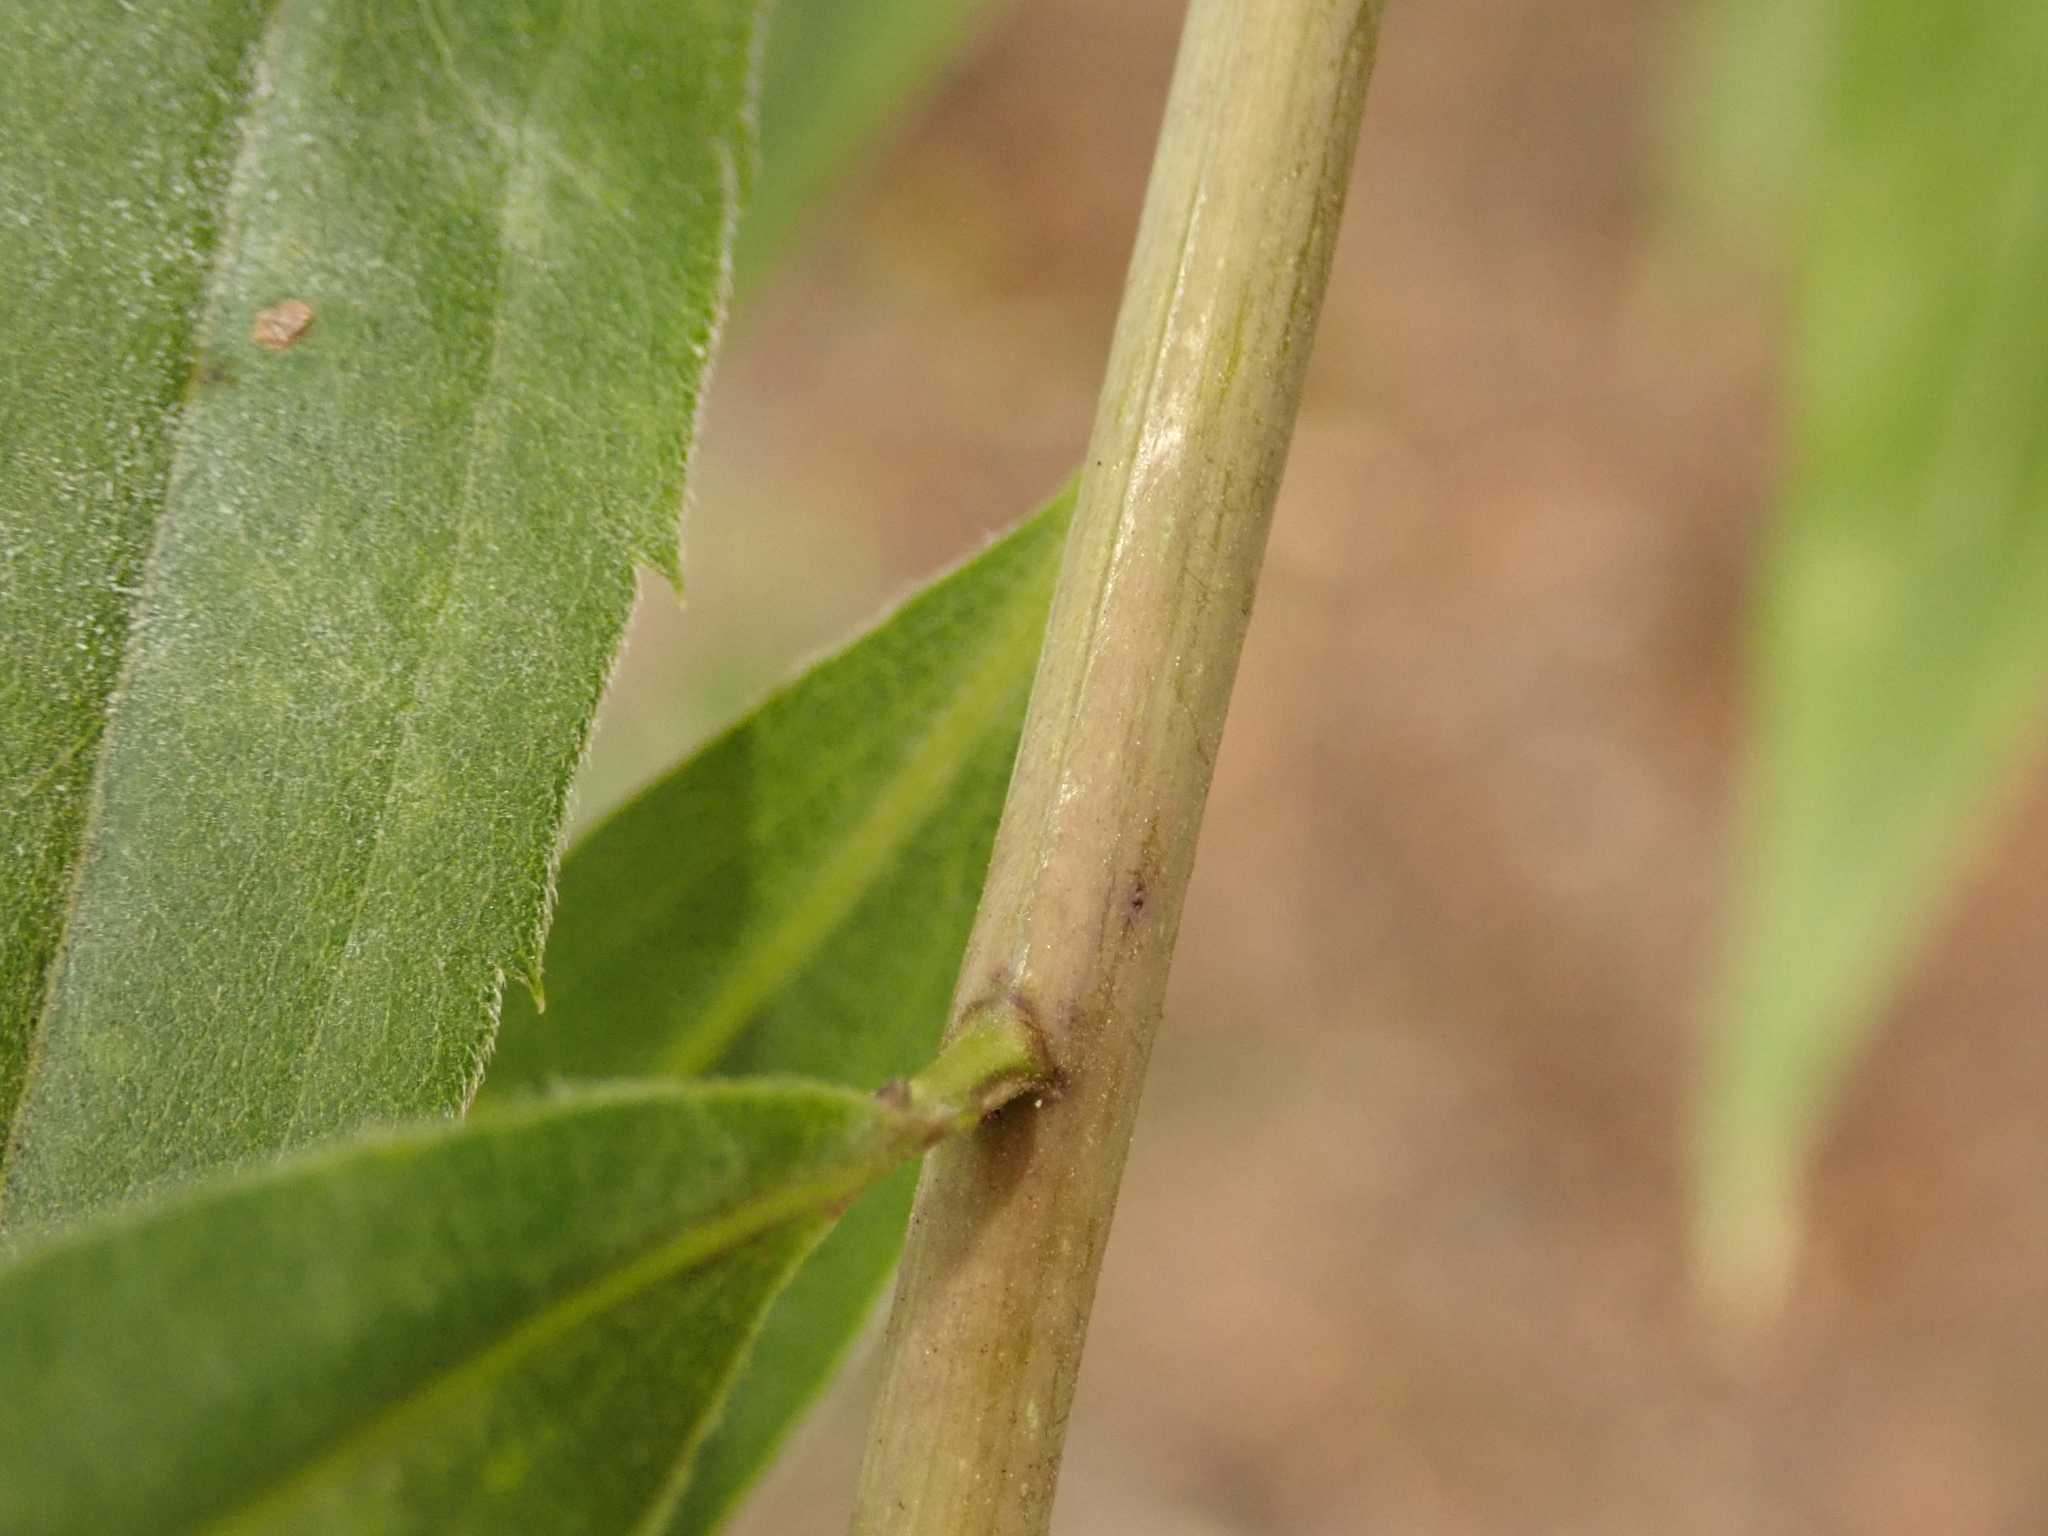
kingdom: Plantae
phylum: Tracheophyta
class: Magnoliopsida
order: Asterales
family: Asteraceae
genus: Solidago
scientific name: Solidago gigantea
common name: Giant goldenrod
